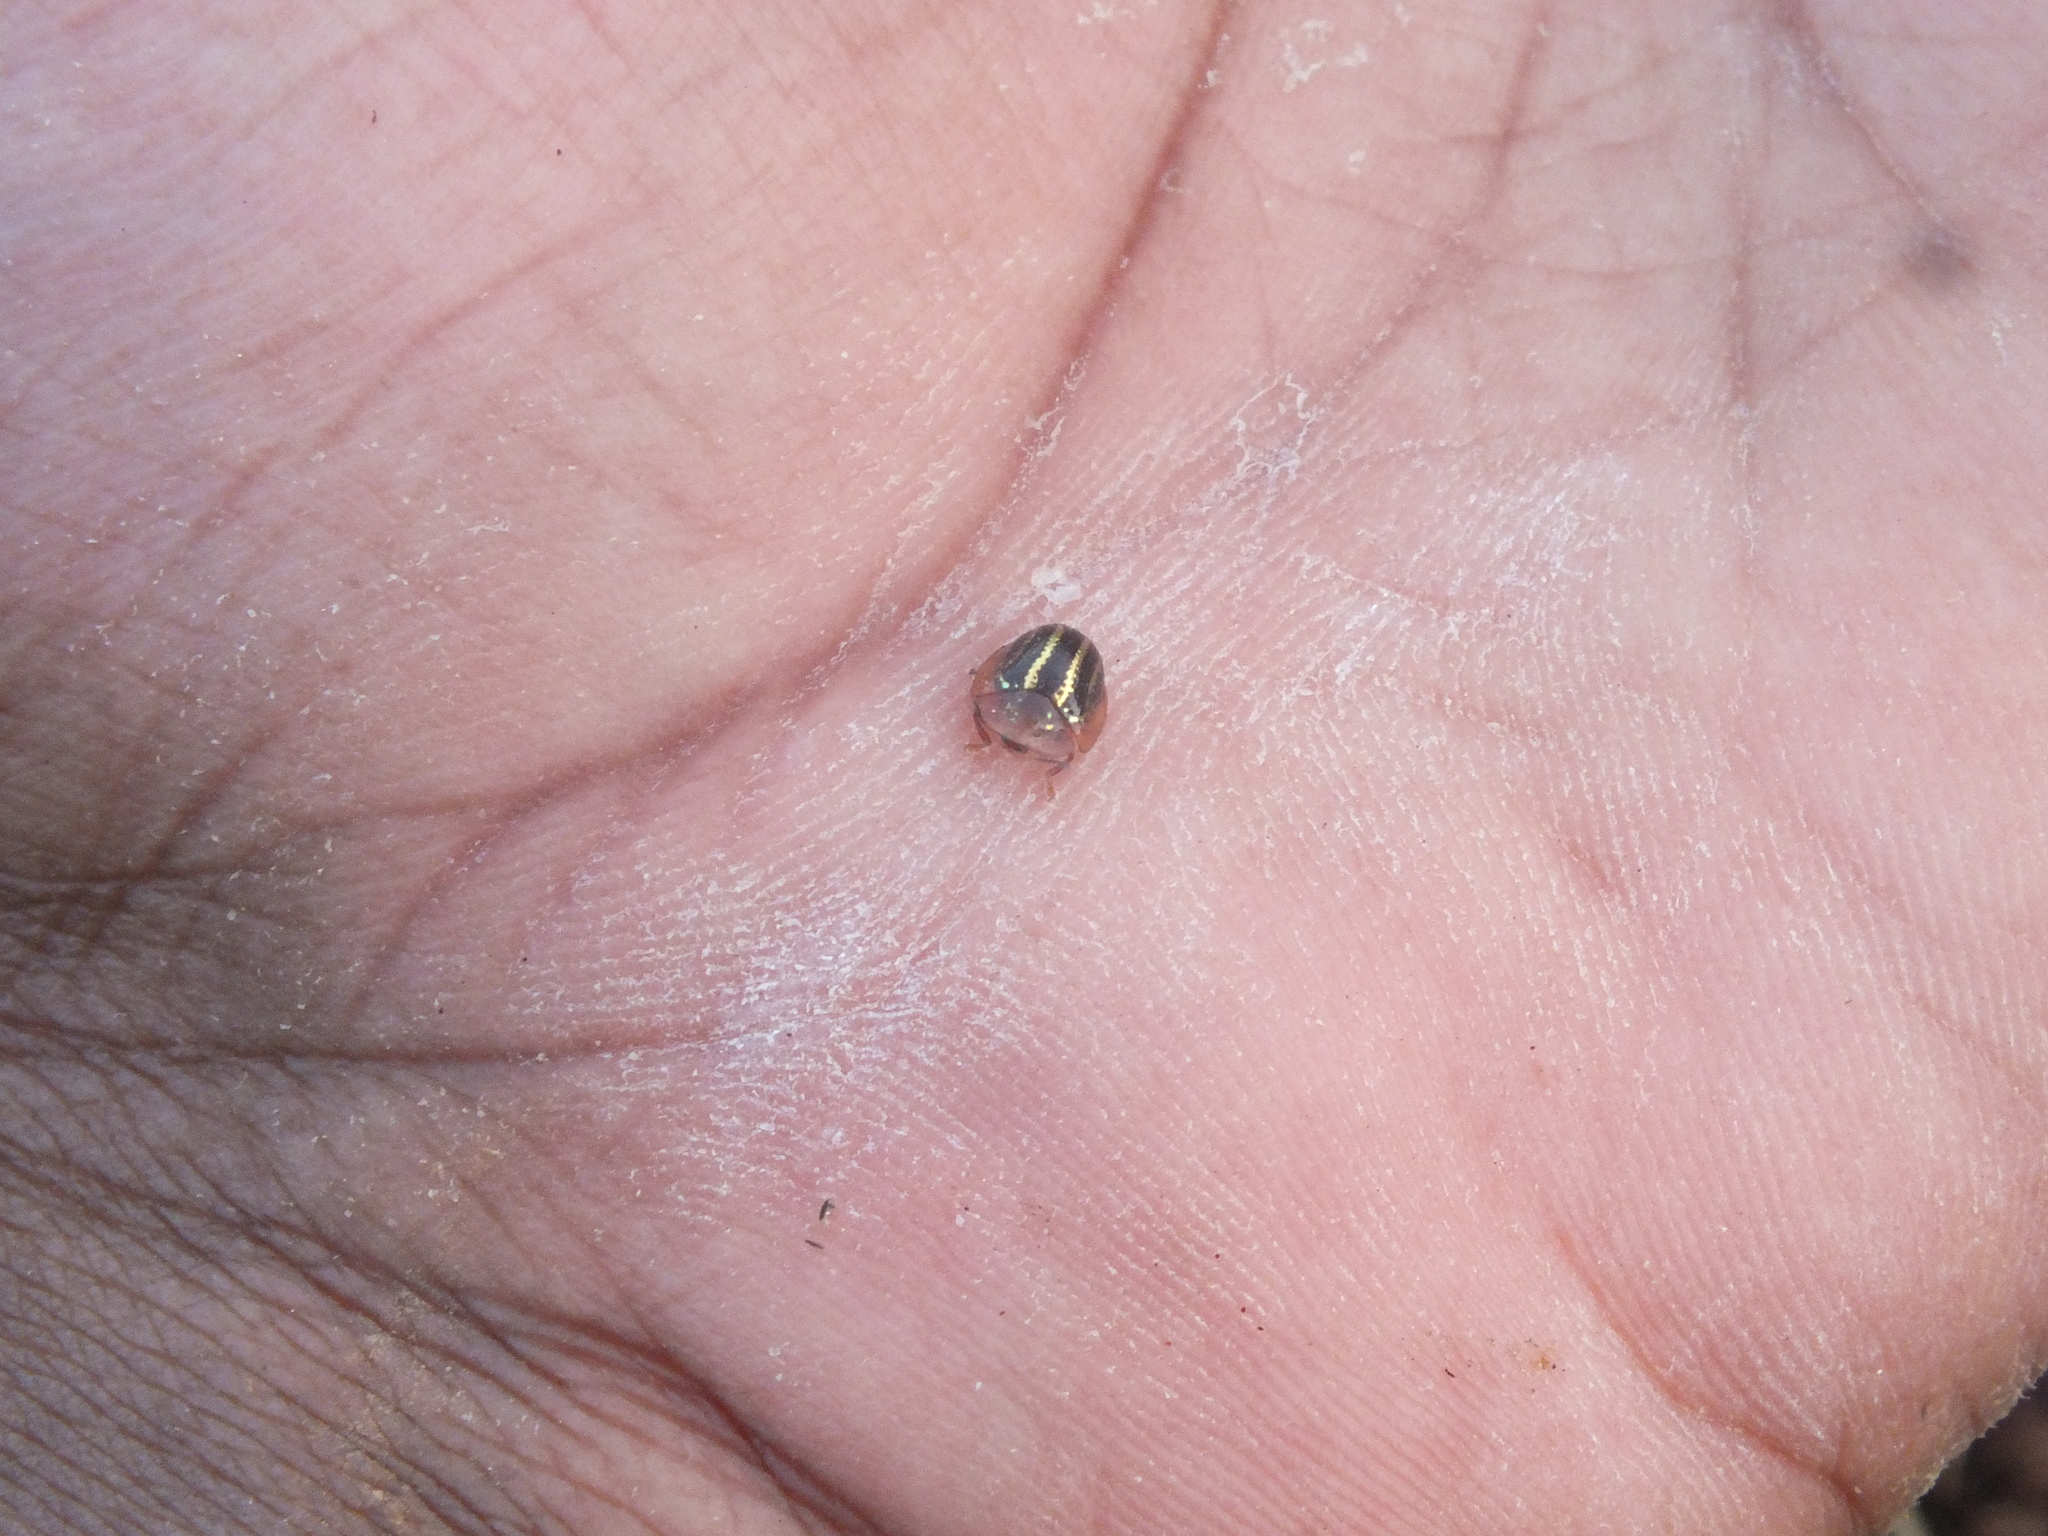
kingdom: Animalia
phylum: Arthropoda
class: Insecta
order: Coleoptera
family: Chrysomelidae
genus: Agroiconota
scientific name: Agroiconota propinqua
